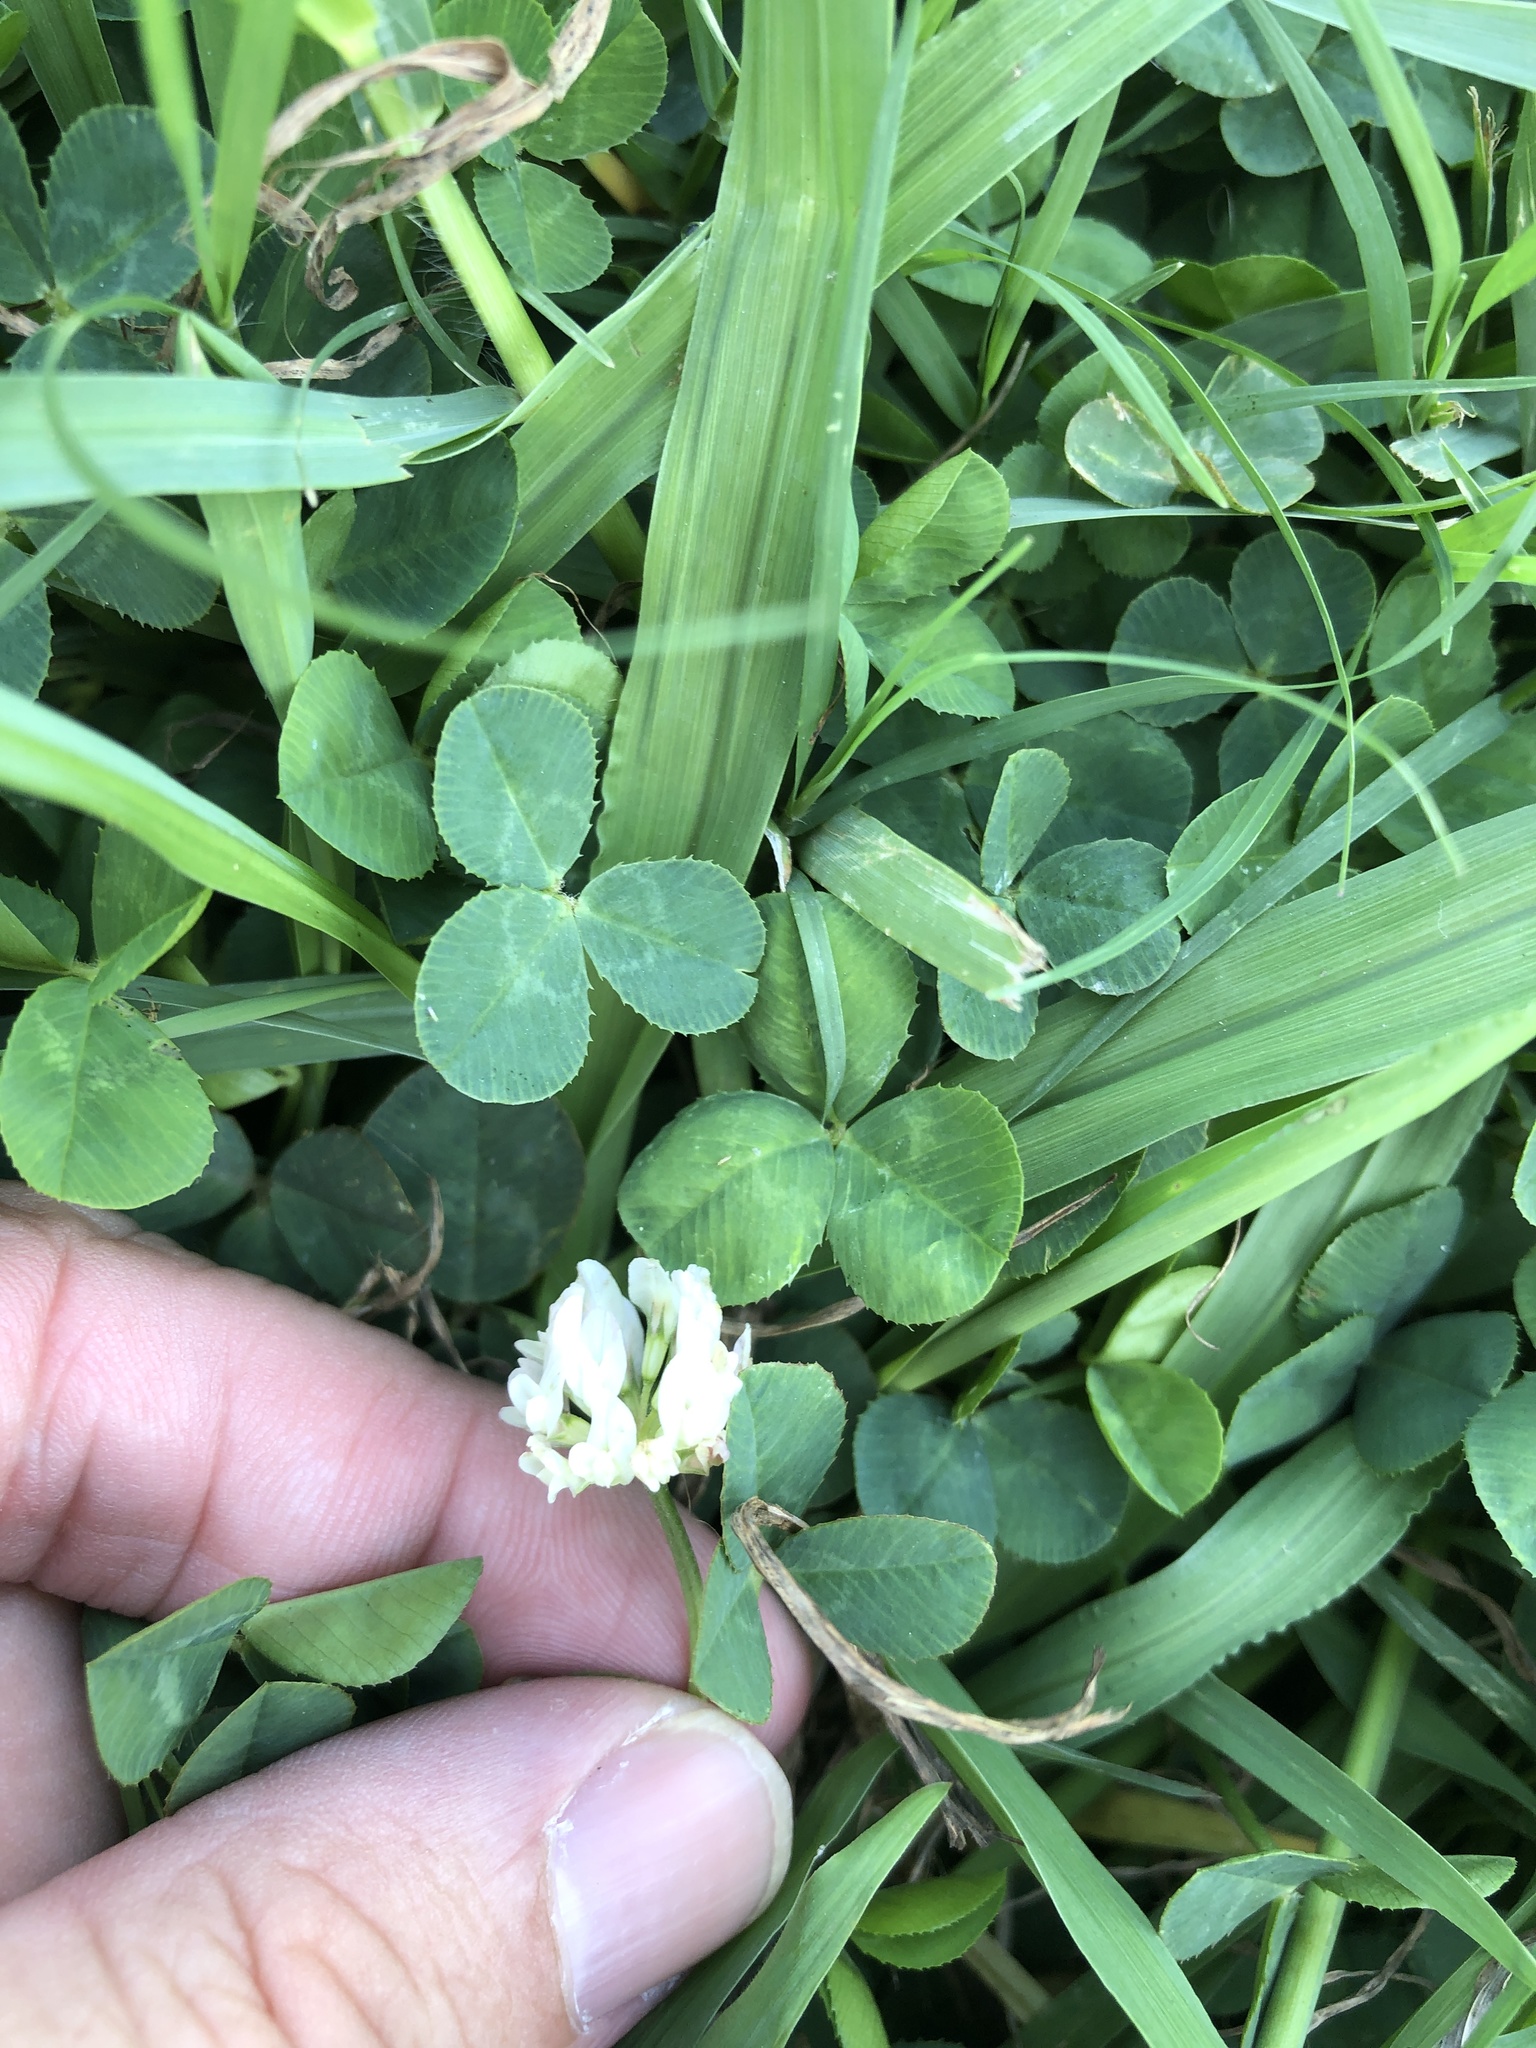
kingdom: Plantae
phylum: Tracheophyta
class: Magnoliopsida
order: Fabales
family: Fabaceae
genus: Trifolium
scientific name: Trifolium repens
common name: White clover
